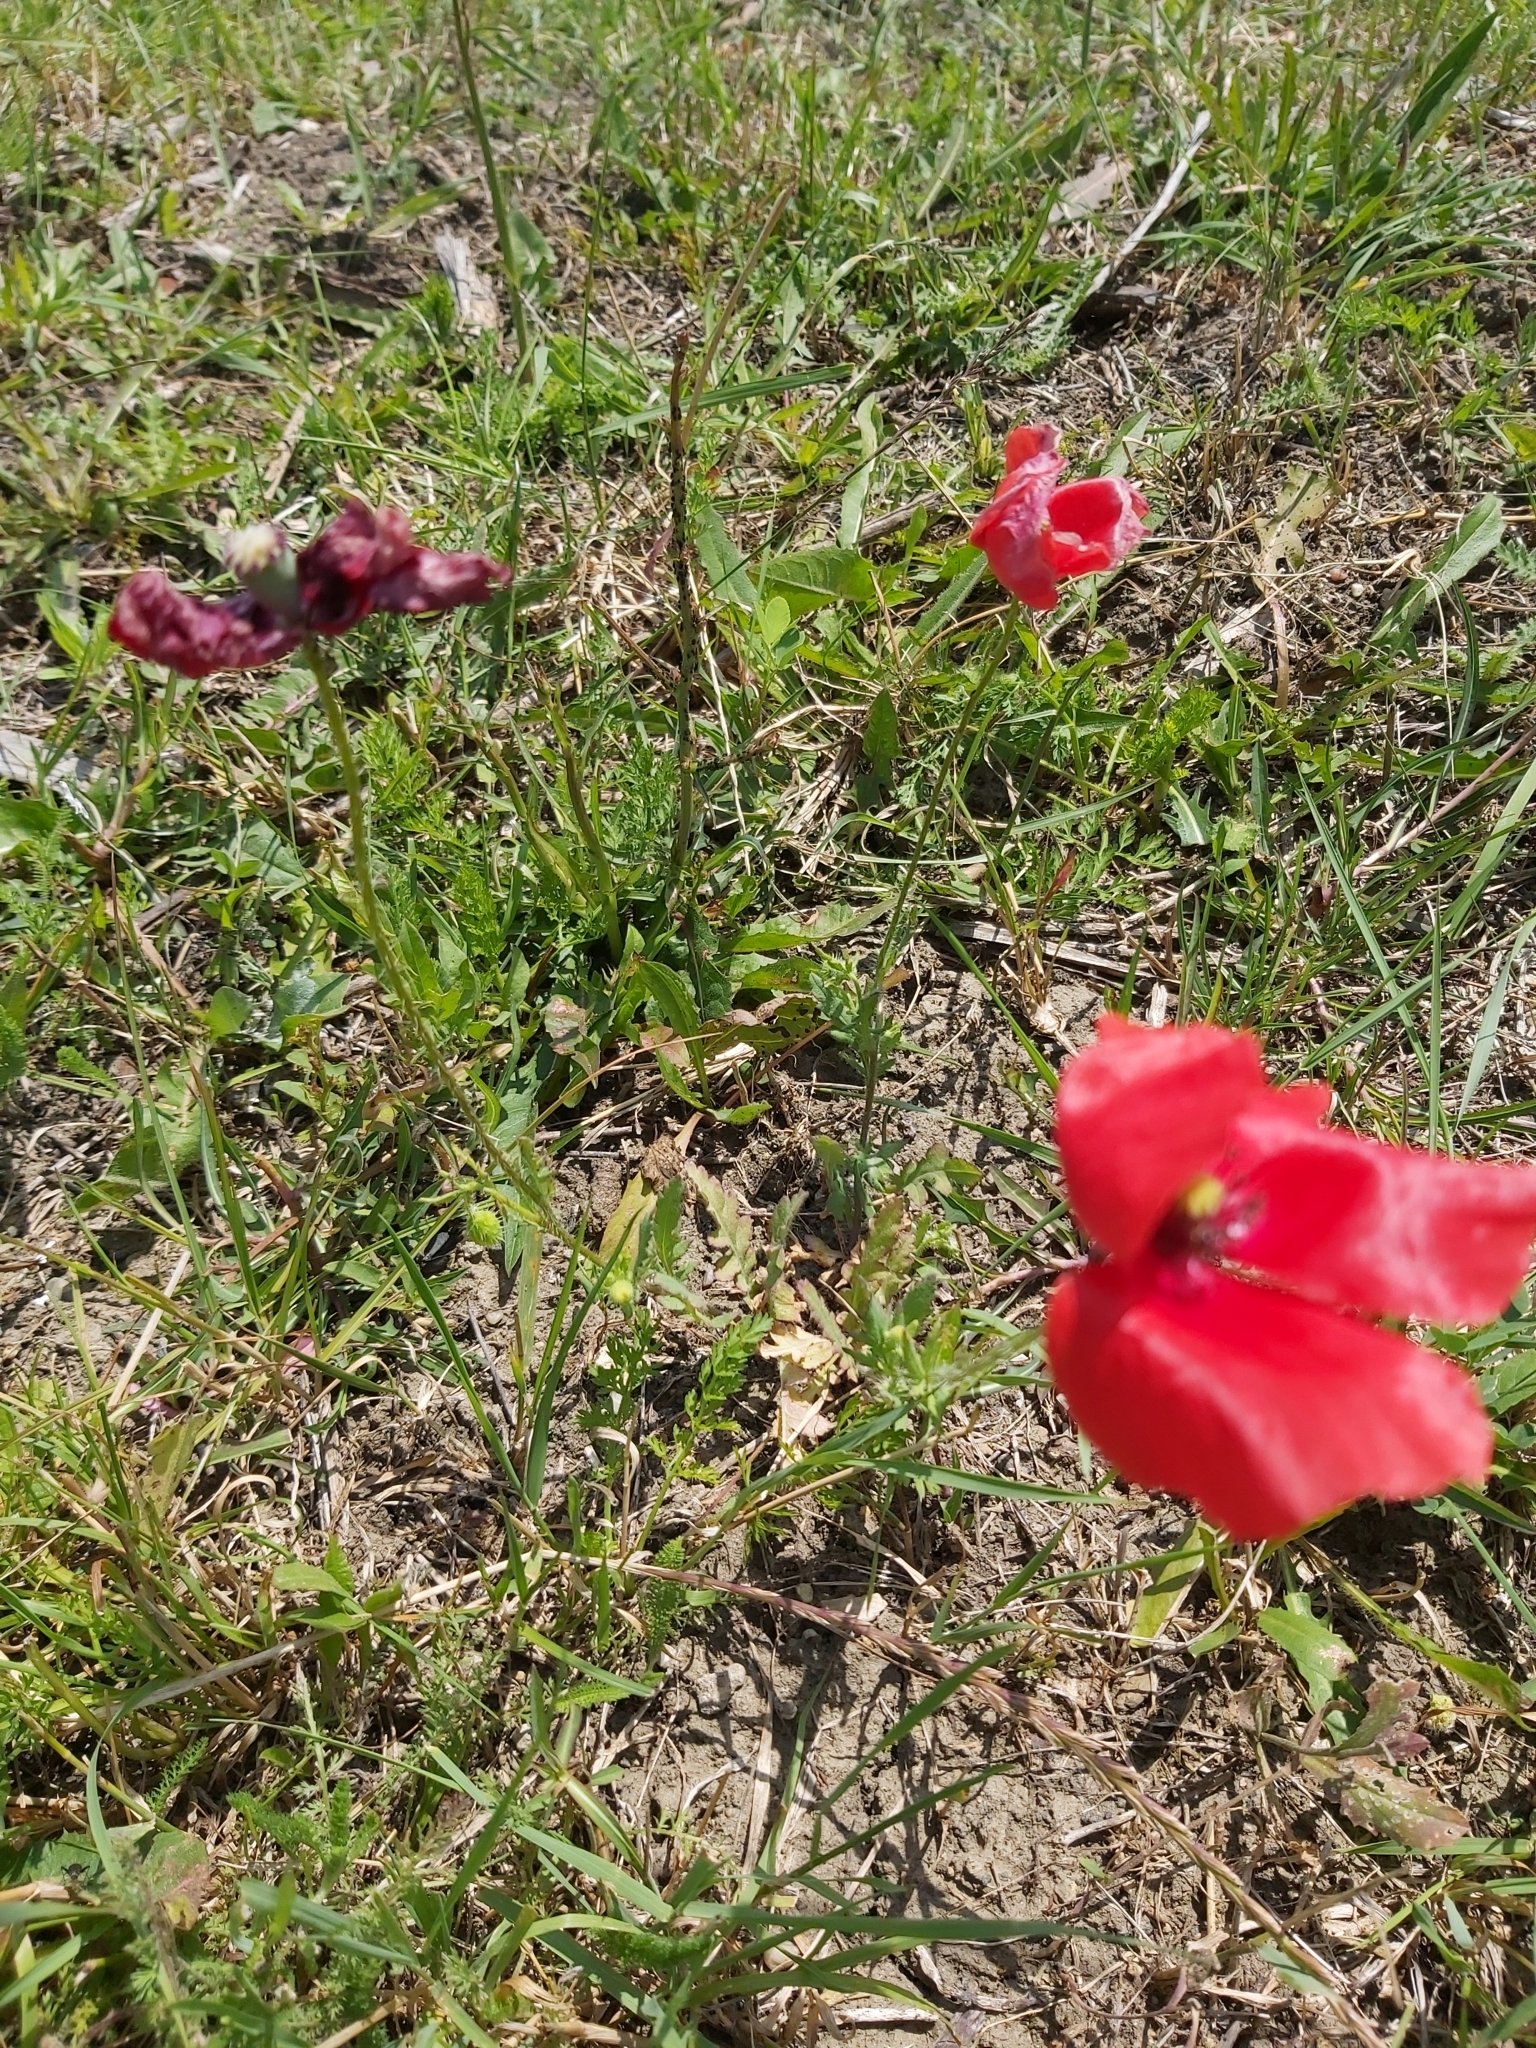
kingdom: Plantae
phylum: Tracheophyta
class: Magnoliopsida
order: Ranunculales
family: Papaveraceae
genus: Papaver
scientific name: Papaver rhoeas
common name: Corn poppy
